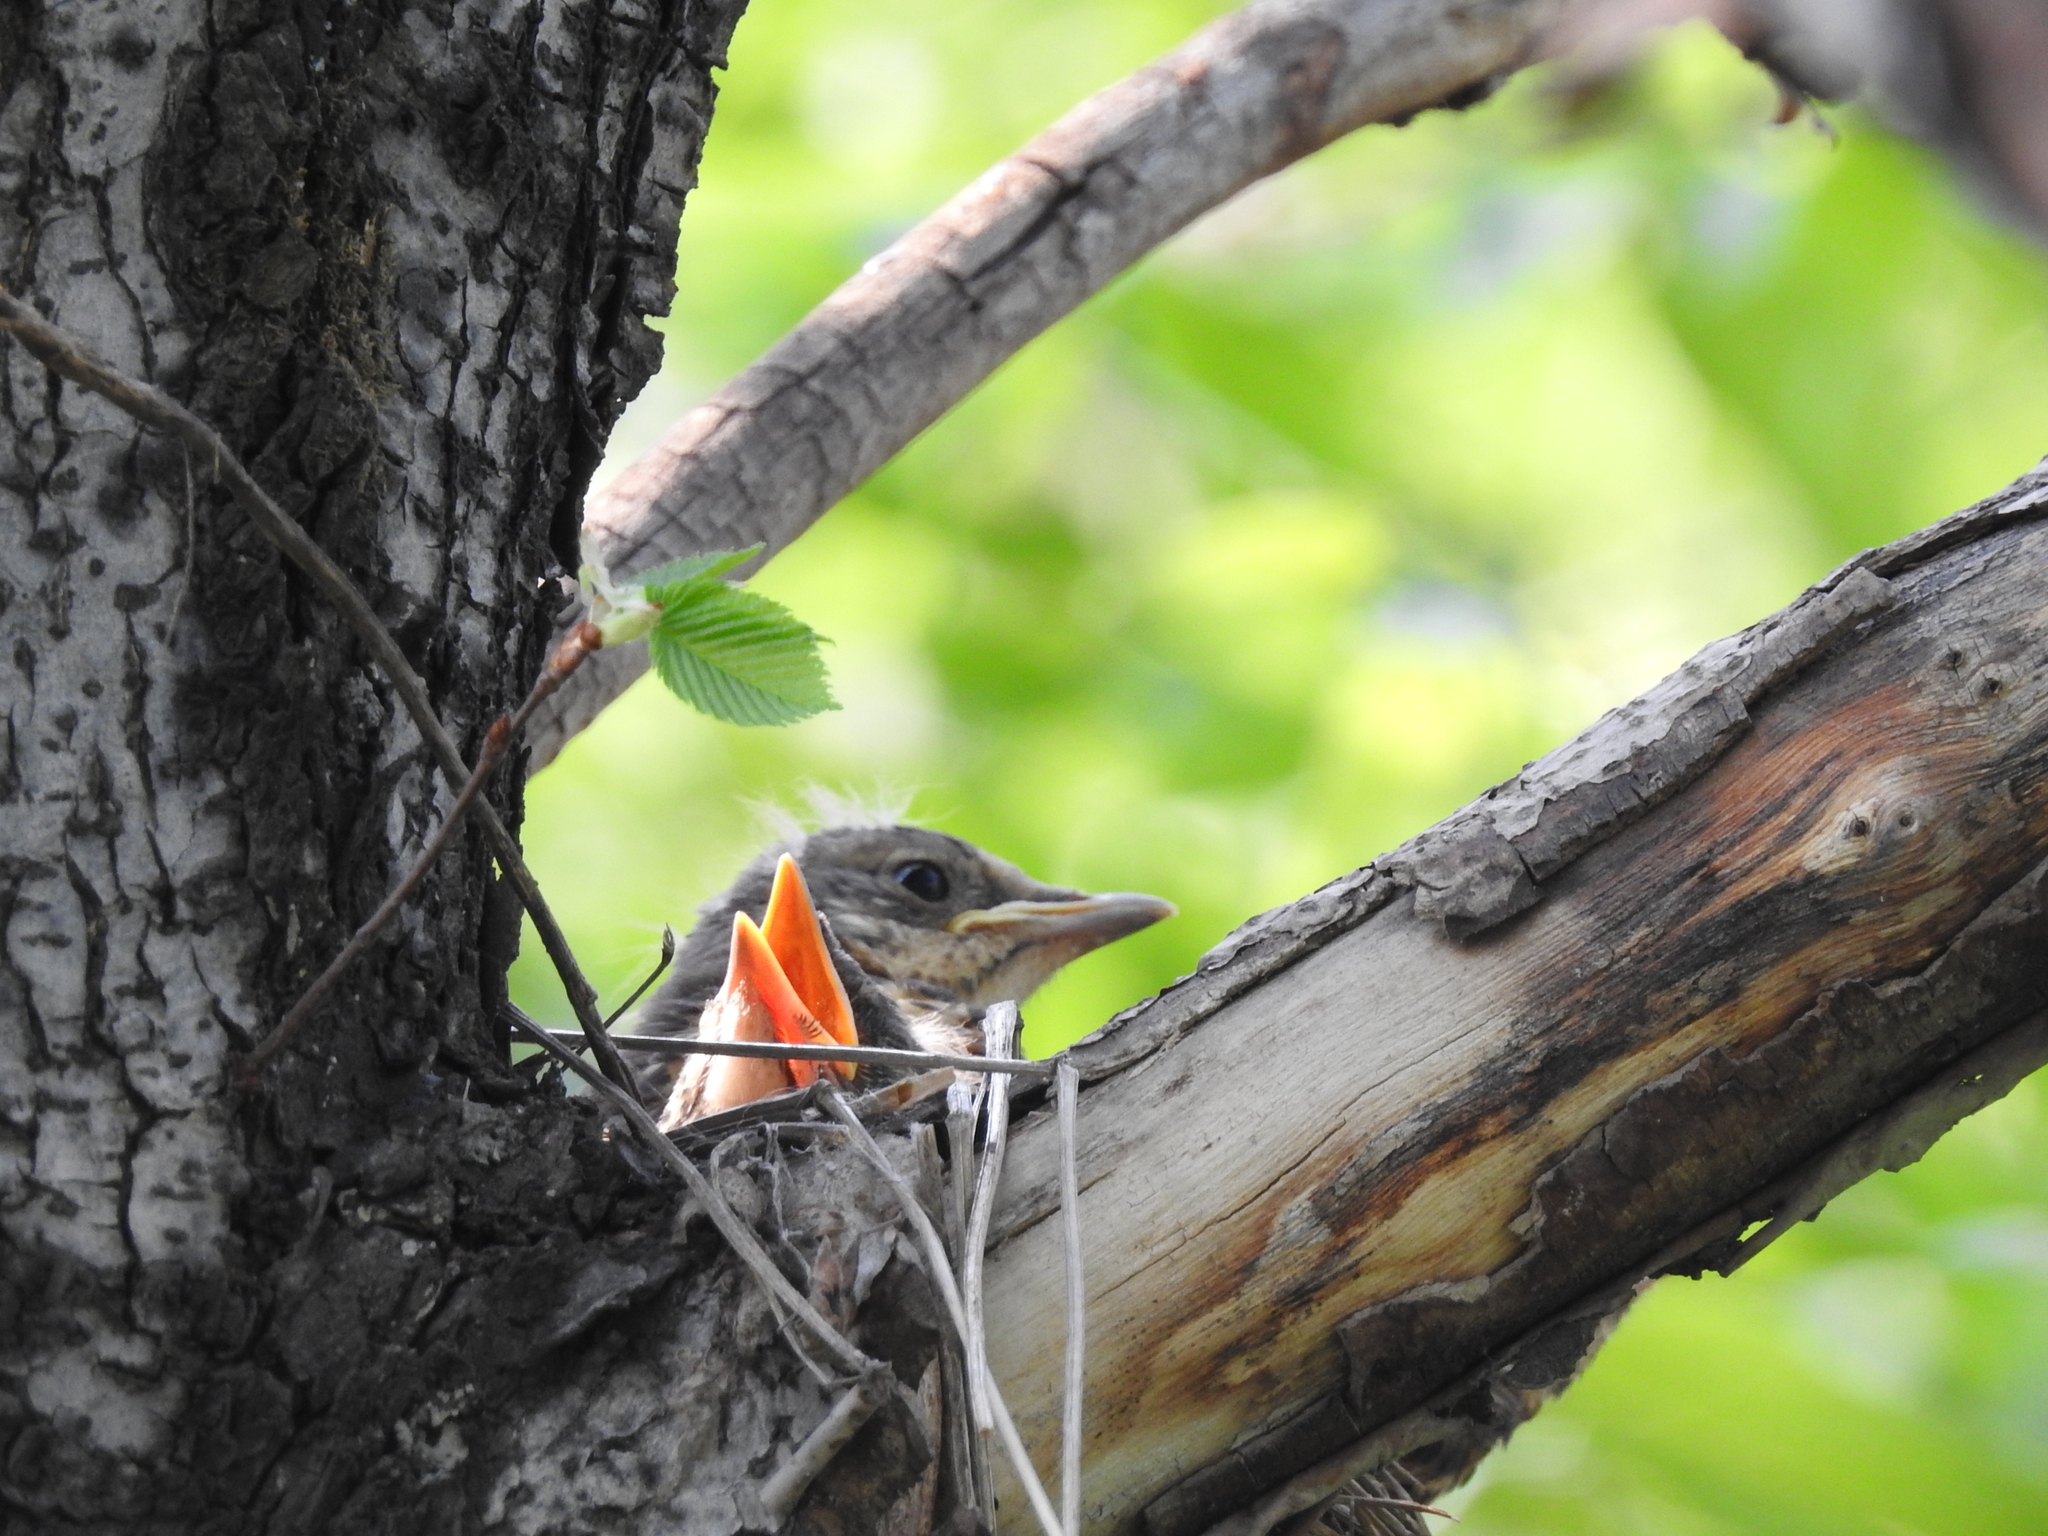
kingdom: Animalia
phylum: Chordata
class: Aves
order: Passeriformes
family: Turdidae
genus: Turdus
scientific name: Turdus pilaris
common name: Fieldfare
